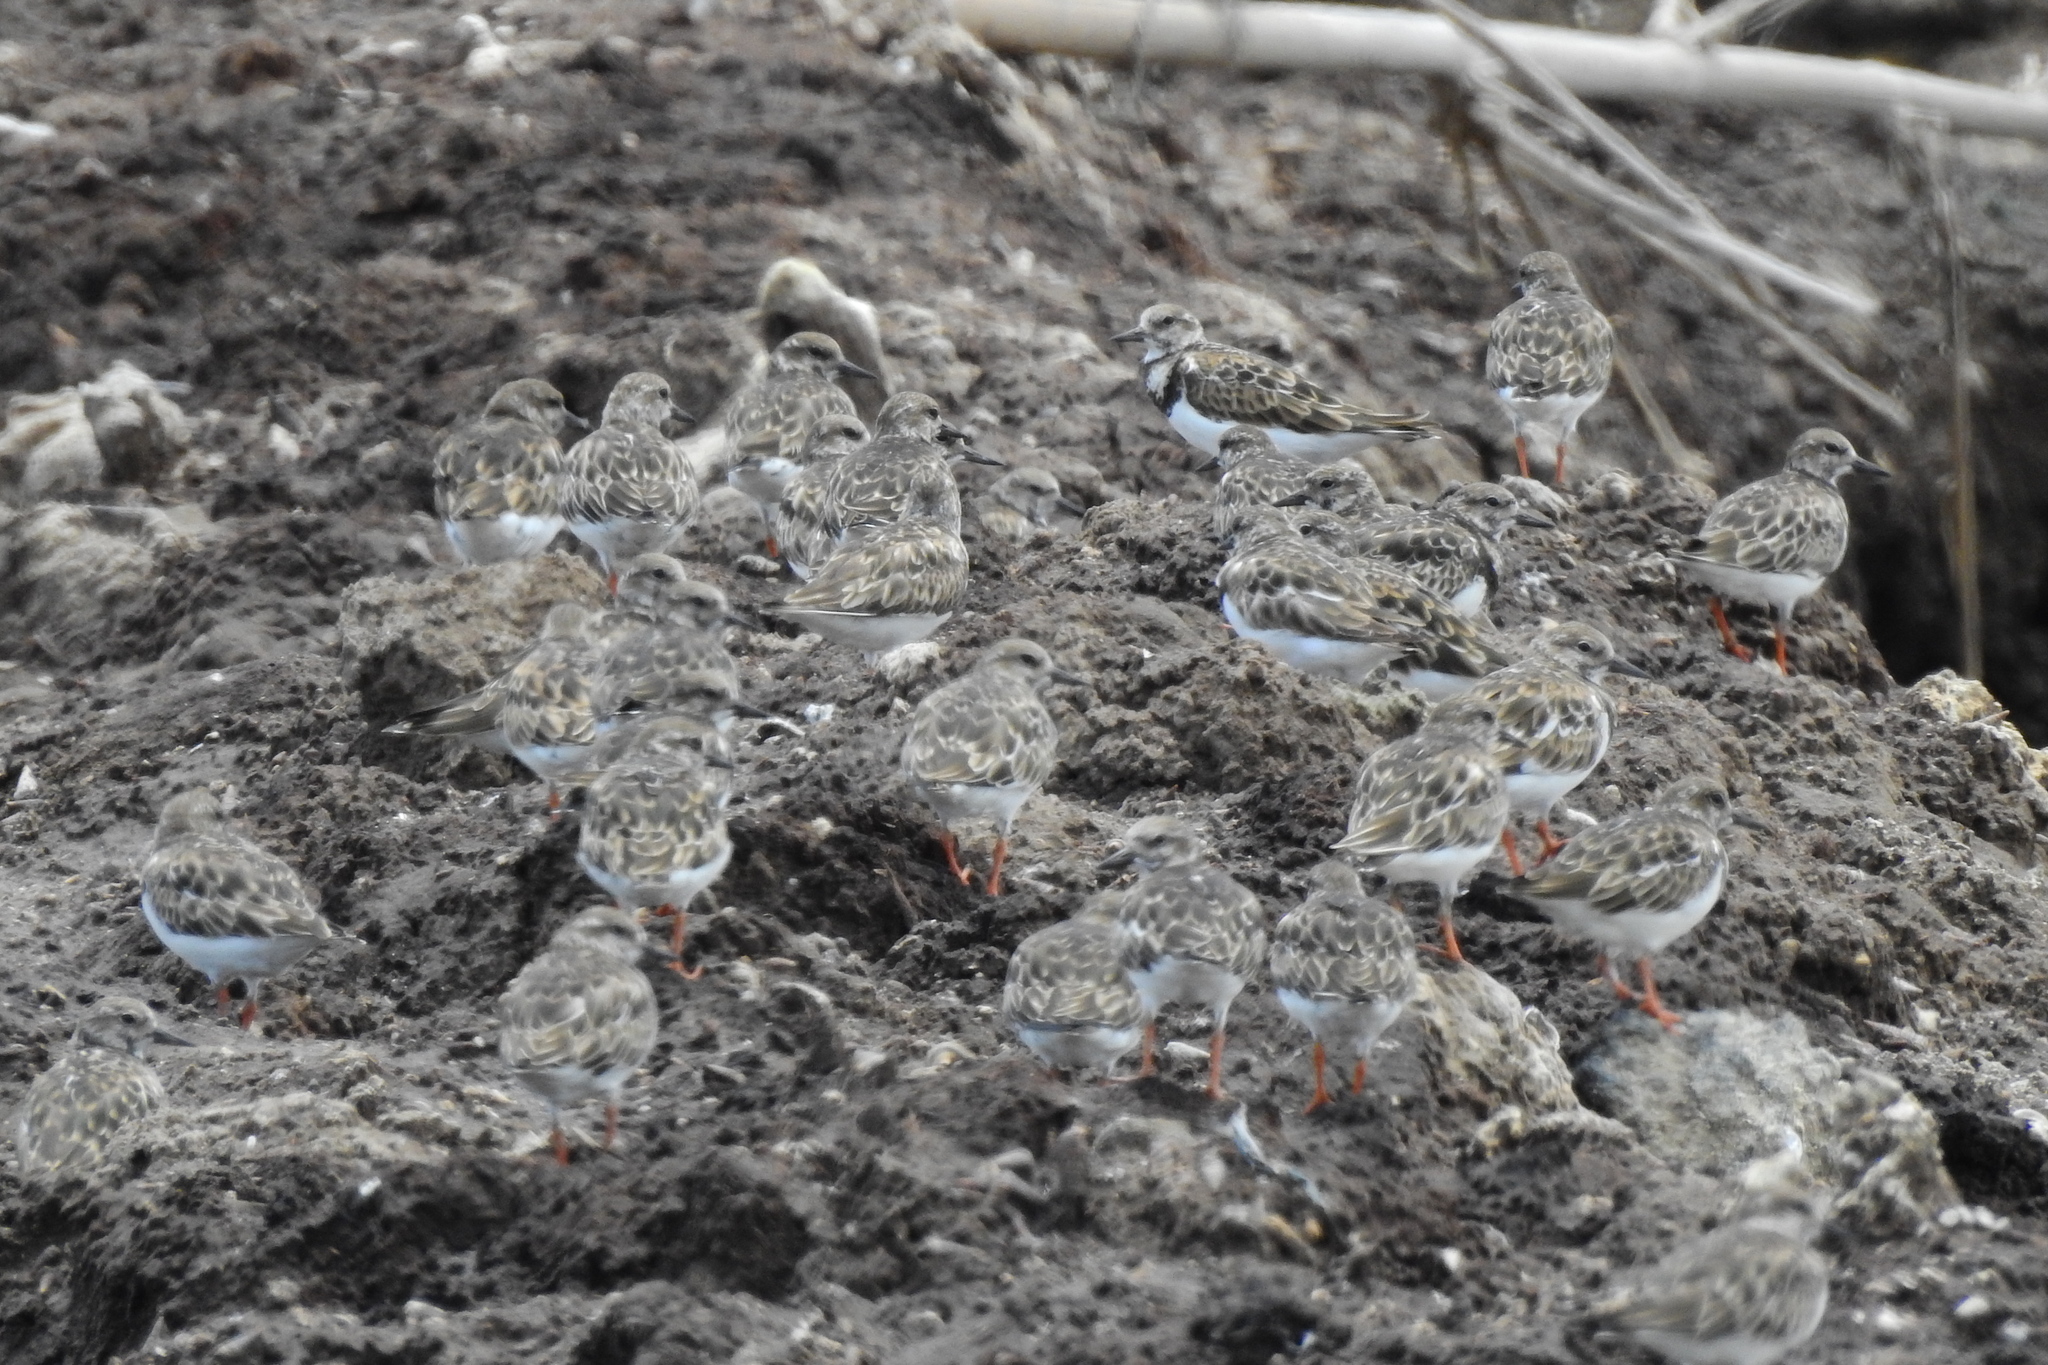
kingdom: Animalia
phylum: Chordata
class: Aves
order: Charadriiformes
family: Scolopacidae
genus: Arenaria
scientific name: Arenaria interpres
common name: Ruddy turnstone
